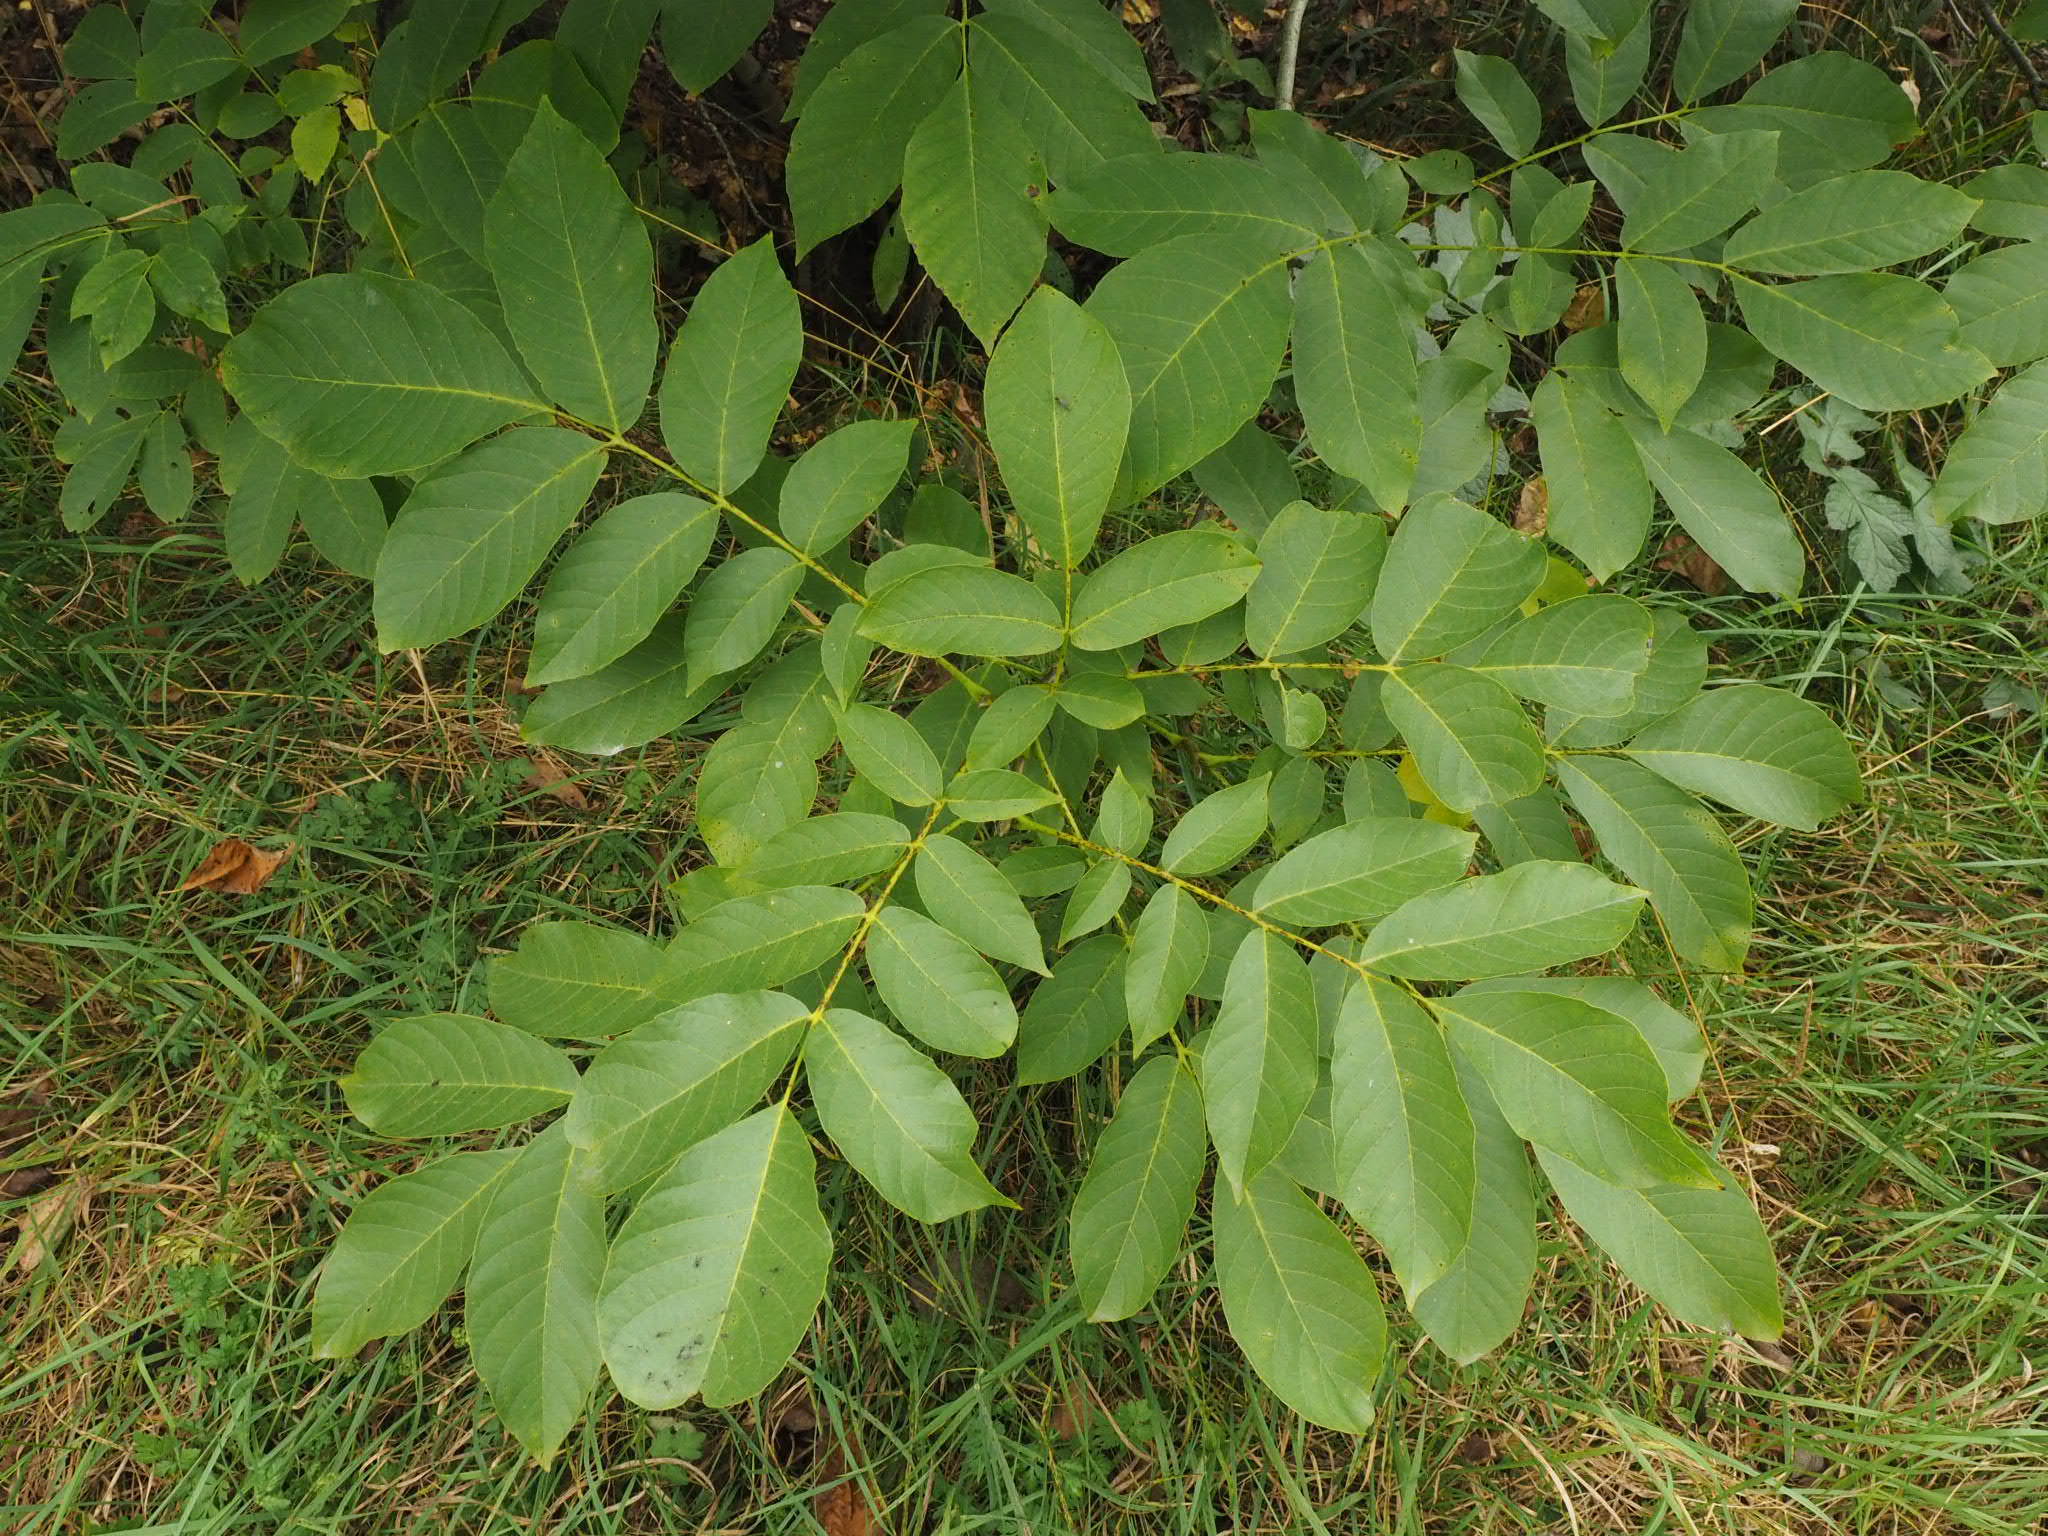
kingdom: Plantae
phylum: Tracheophyta
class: Magnoliopsida
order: Fagales
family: Juglandaceae
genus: Juglans
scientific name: Juglans regia
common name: Walnut
